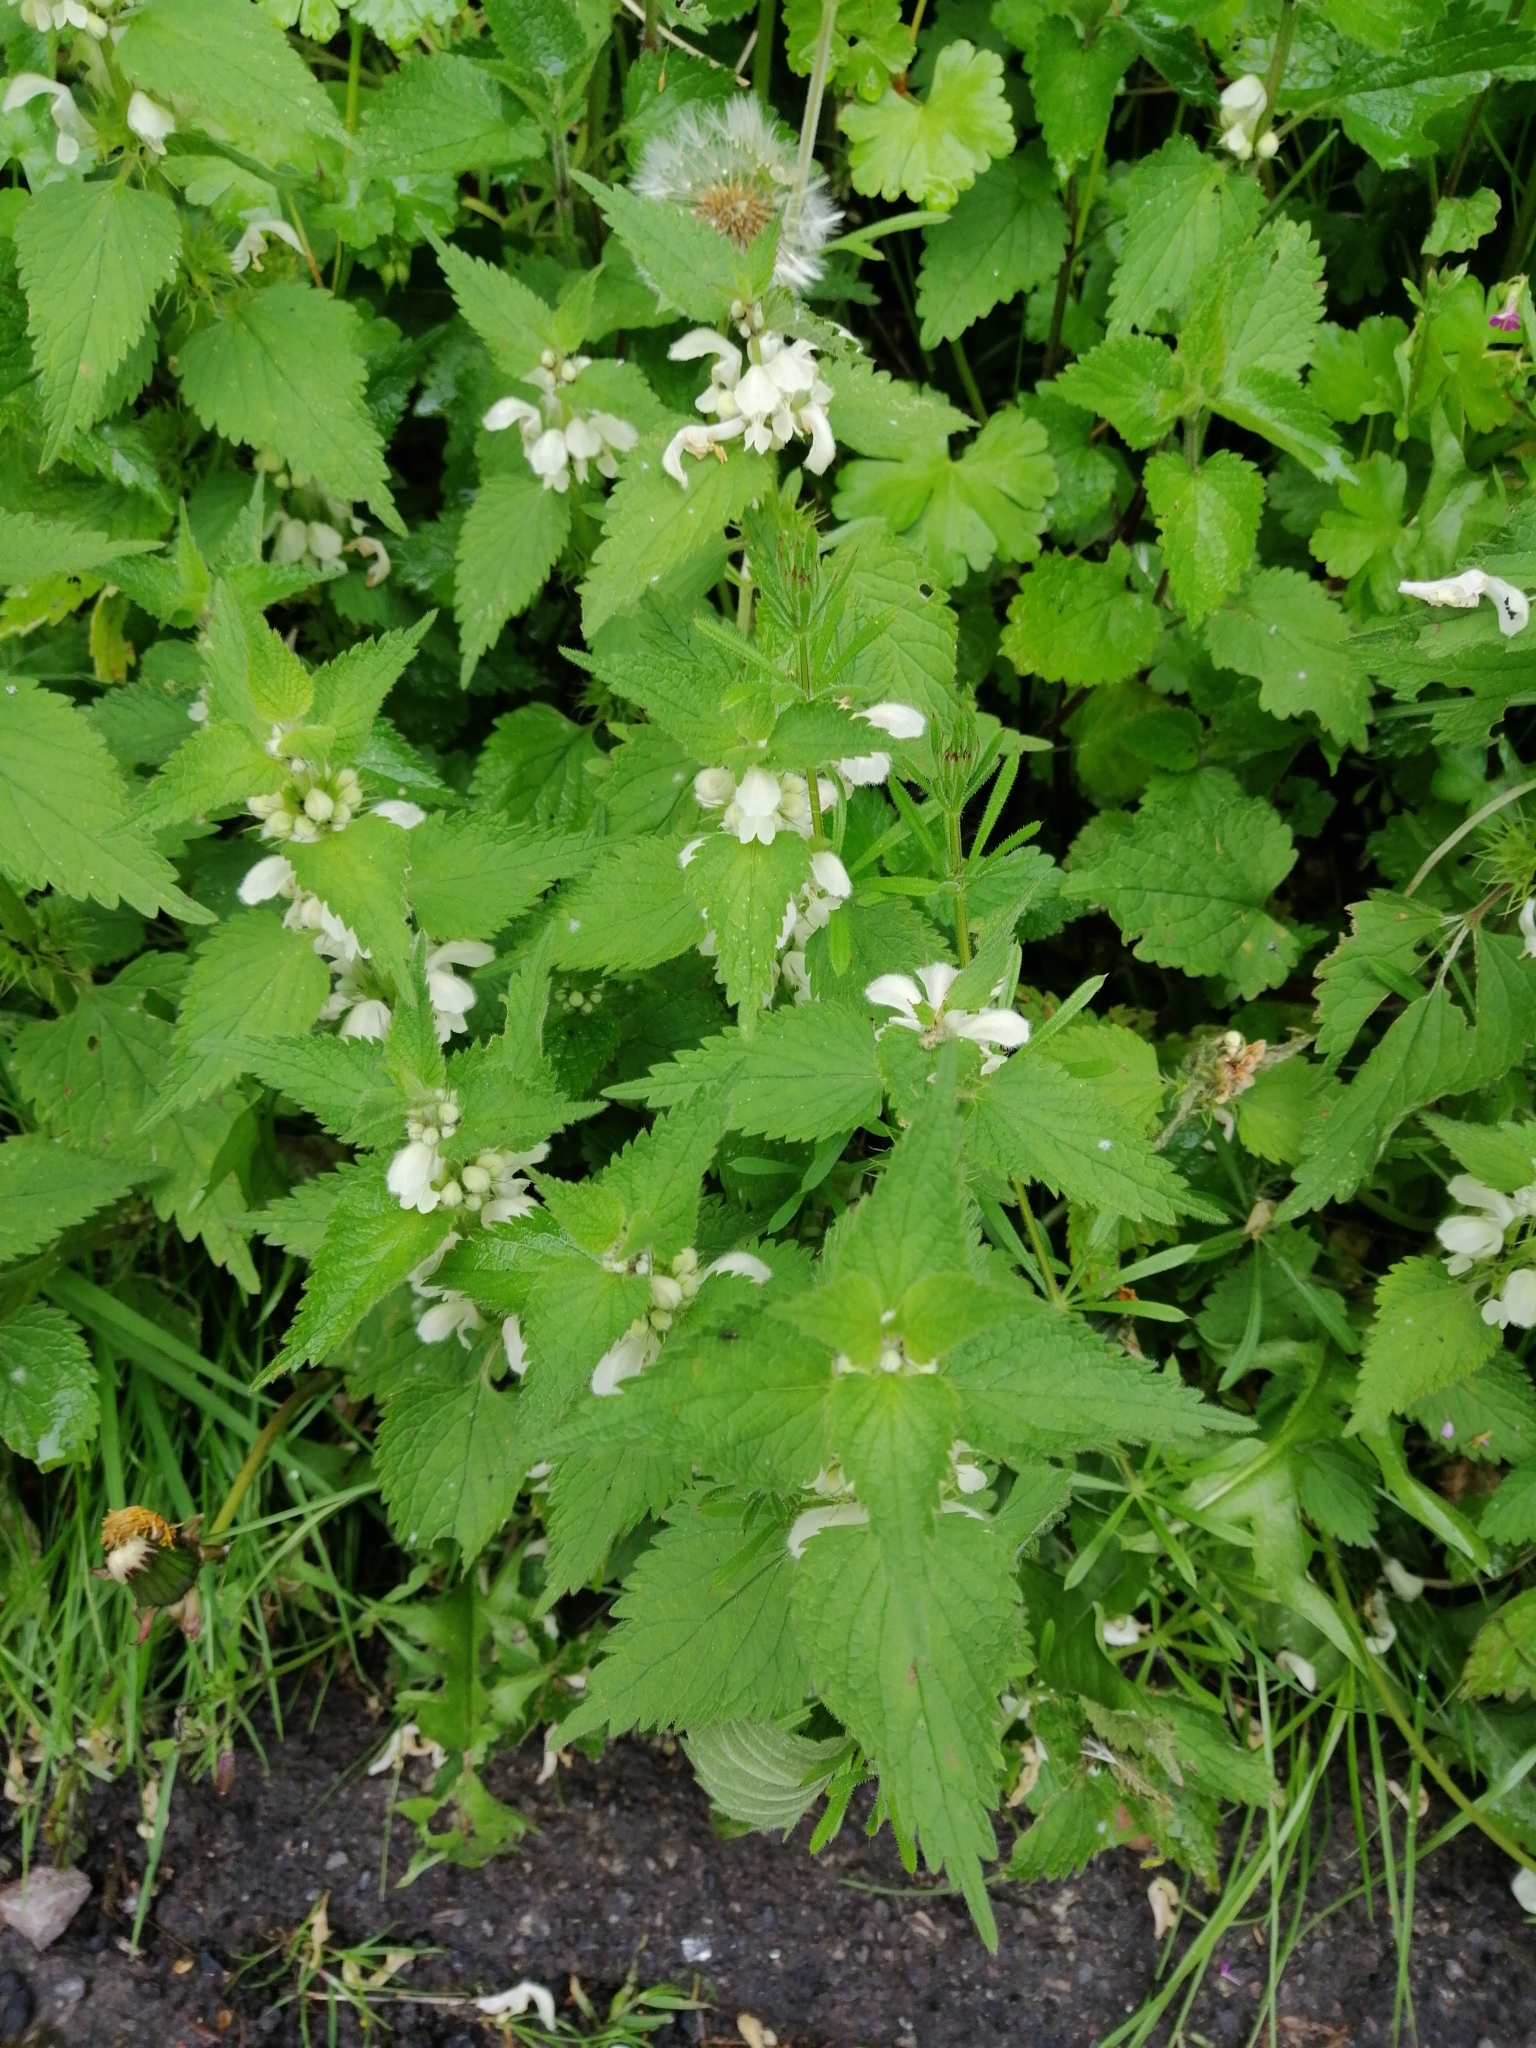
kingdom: Plantae
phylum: Tracheophyta
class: Magnoliopsida
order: Lamiales
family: Lamiaceae
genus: Lamium
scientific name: Lamium album
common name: White dead-nettle
